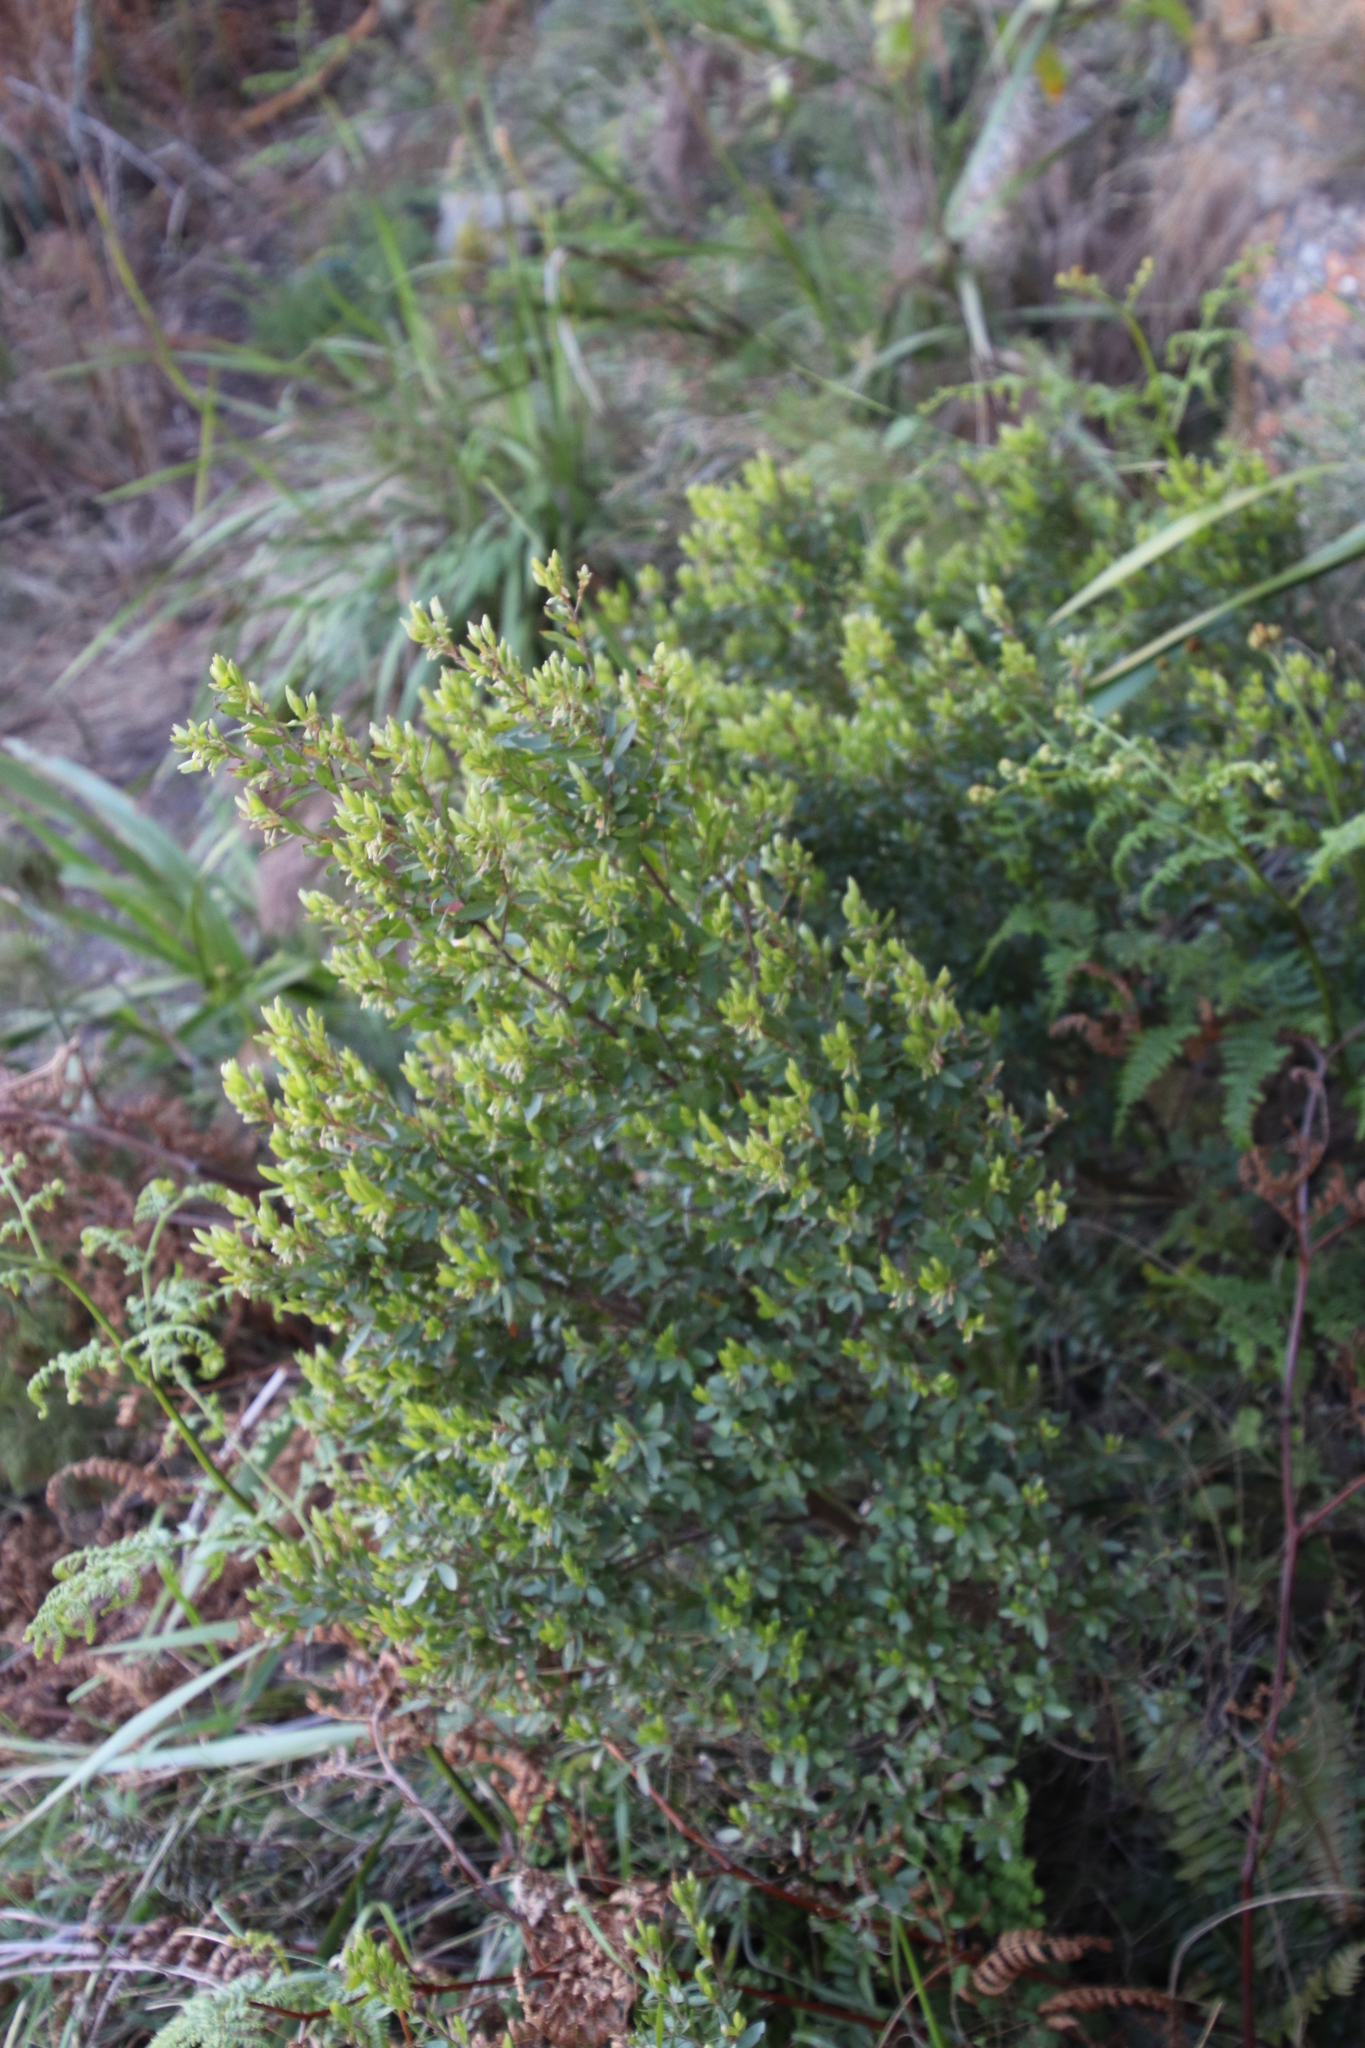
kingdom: Plantae
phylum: Tracheophyta
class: Magnoliopsida
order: Ericales
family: Ebenaceae
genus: Diospyros
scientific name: Diospyros glabra
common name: Fynbos star apple
